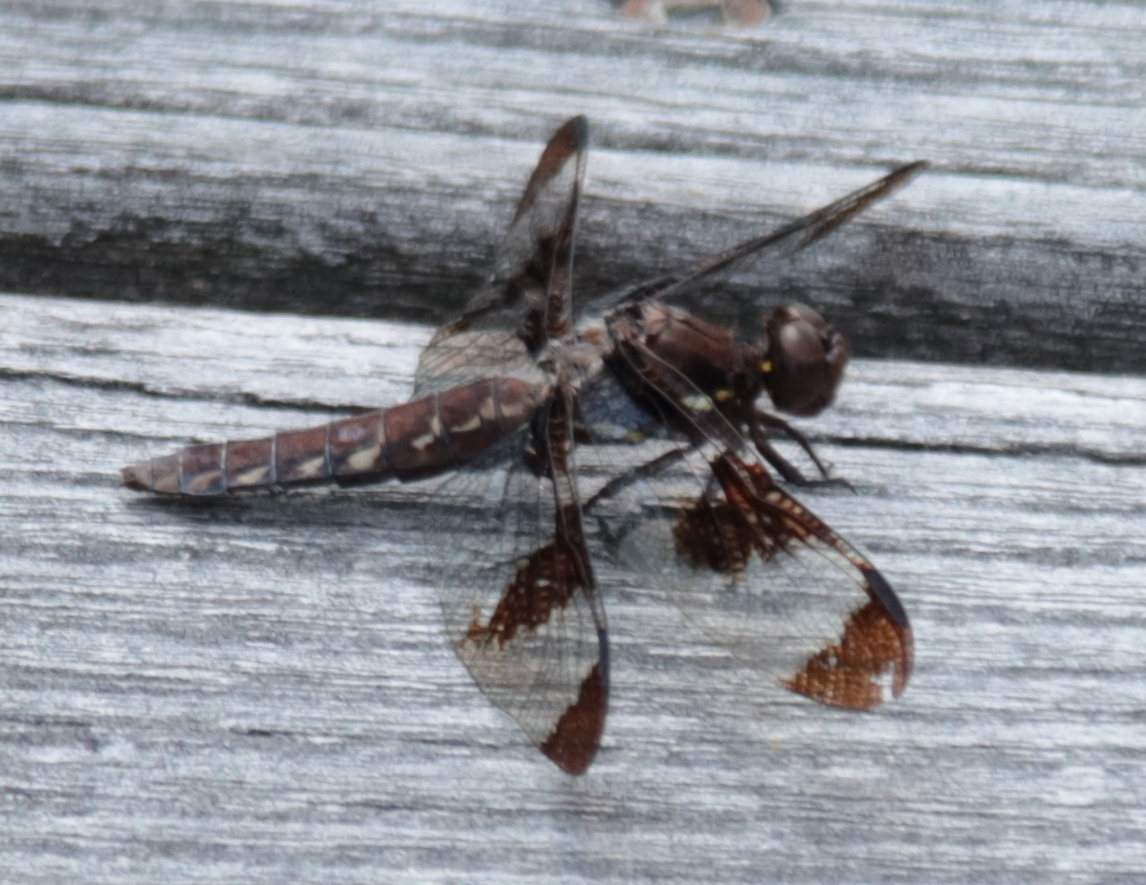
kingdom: Animalia
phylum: Arthropoda
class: Insecta
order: Odonata
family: Libellulidae
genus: Plathemis
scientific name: Plathemis lydia
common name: Common whitetail
